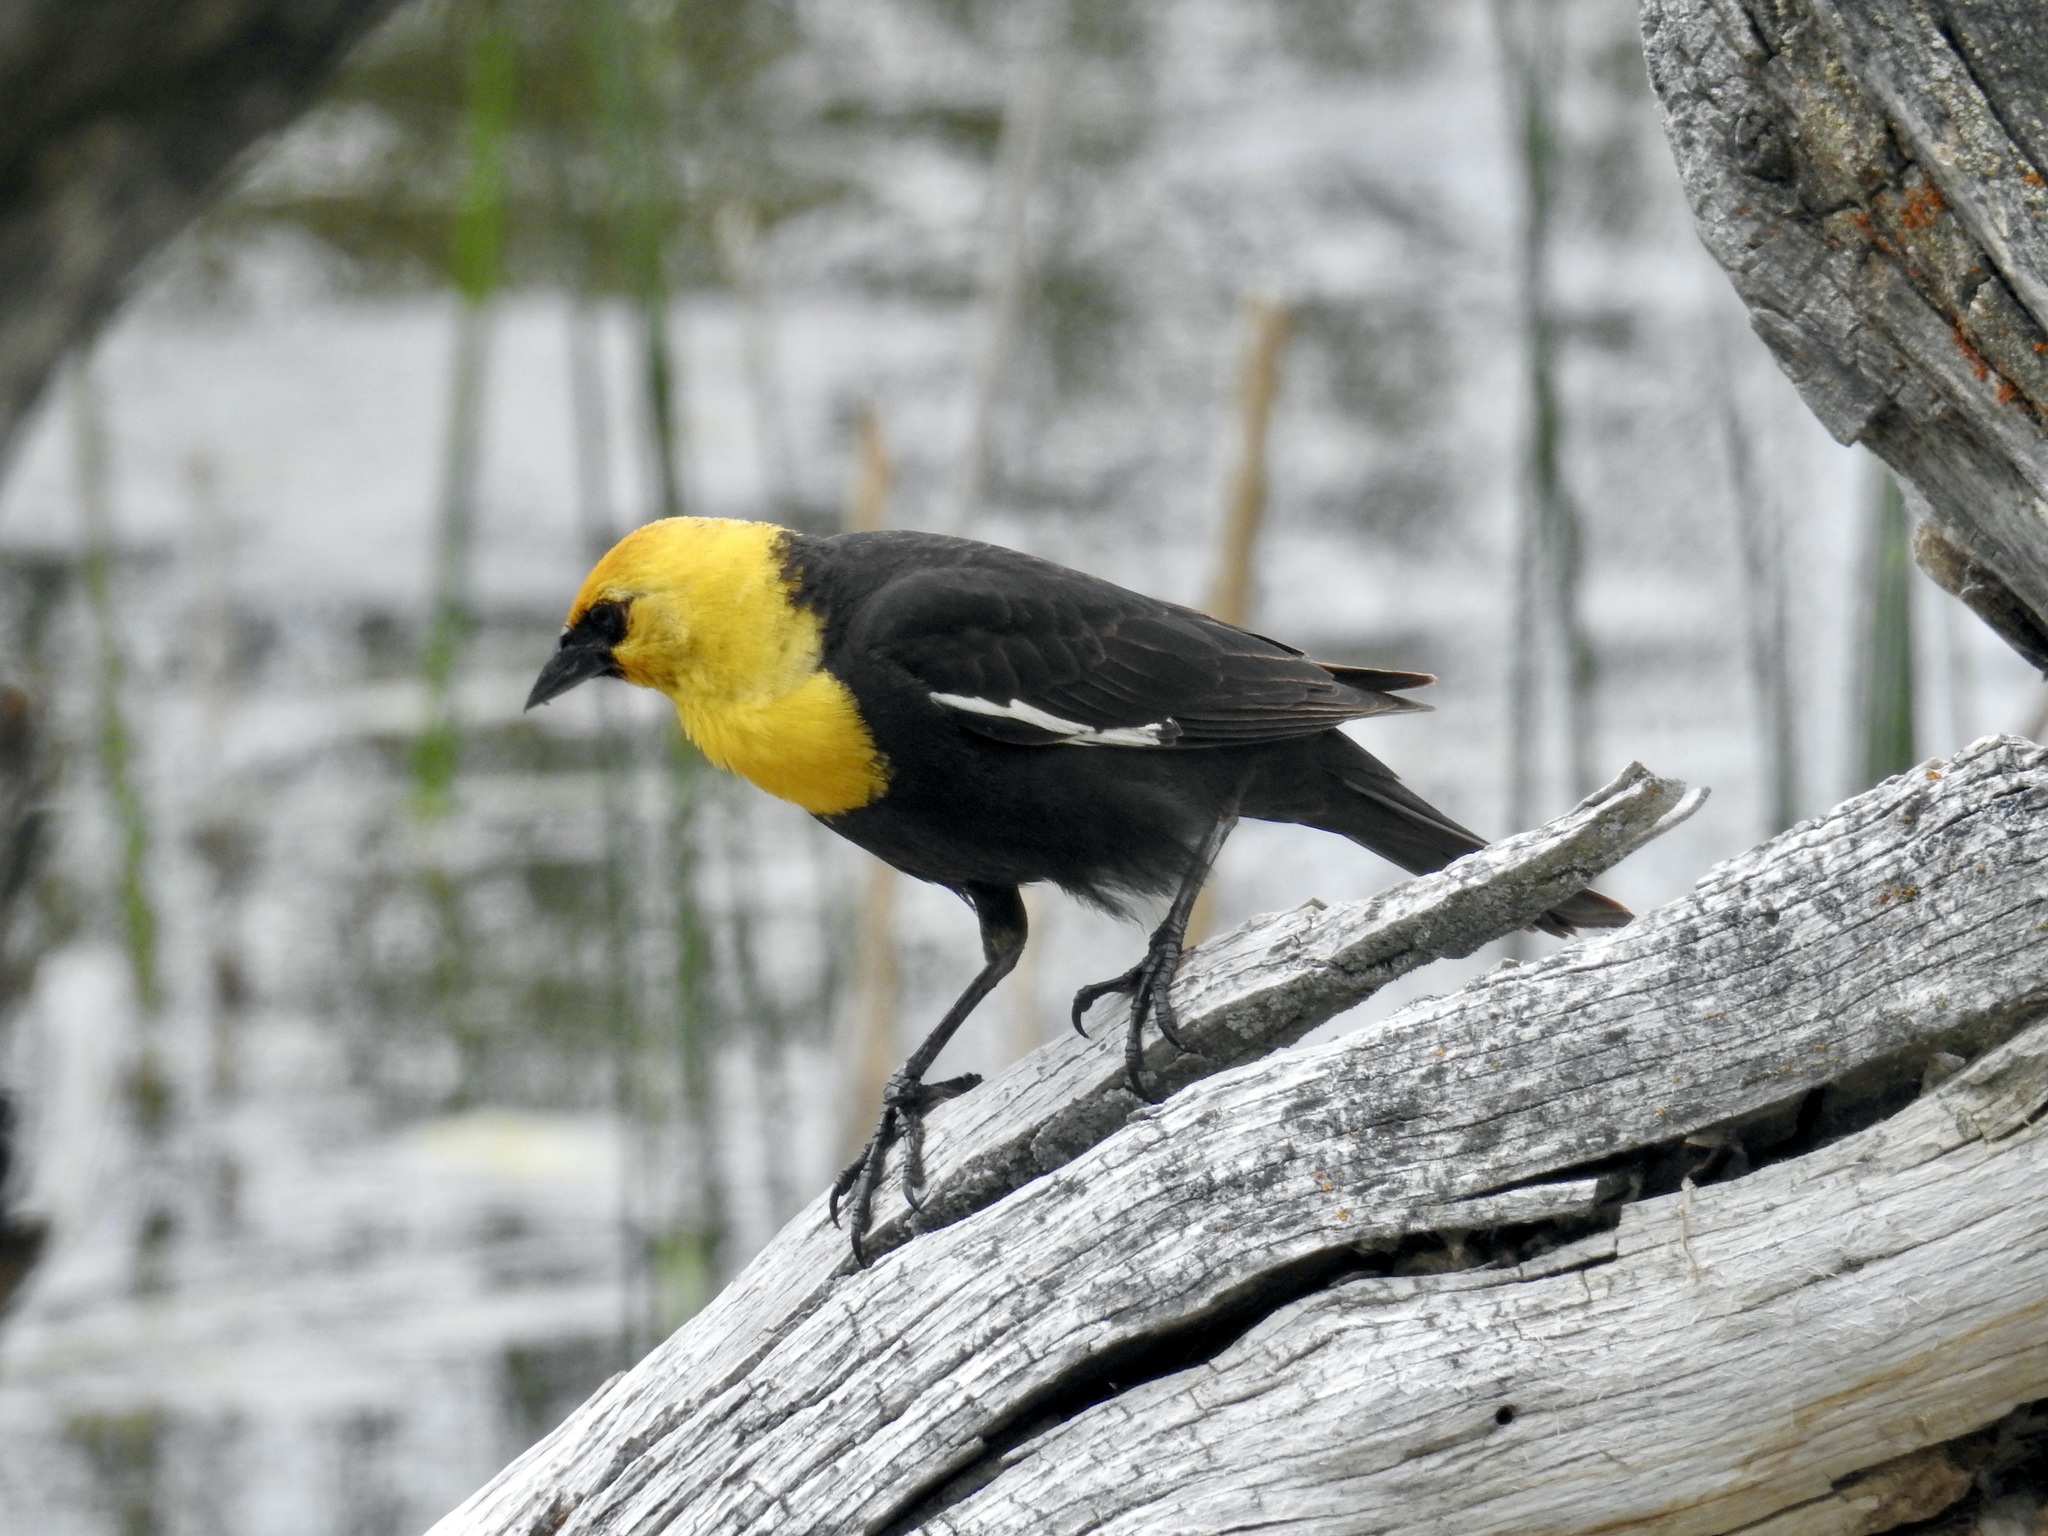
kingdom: Animalia
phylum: Chordata
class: Aves
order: Passeriformes
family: Icteridae
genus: Xanthocephalus
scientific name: Xanthocephalus xanthocephalus
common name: Yellow-headed blackbird
